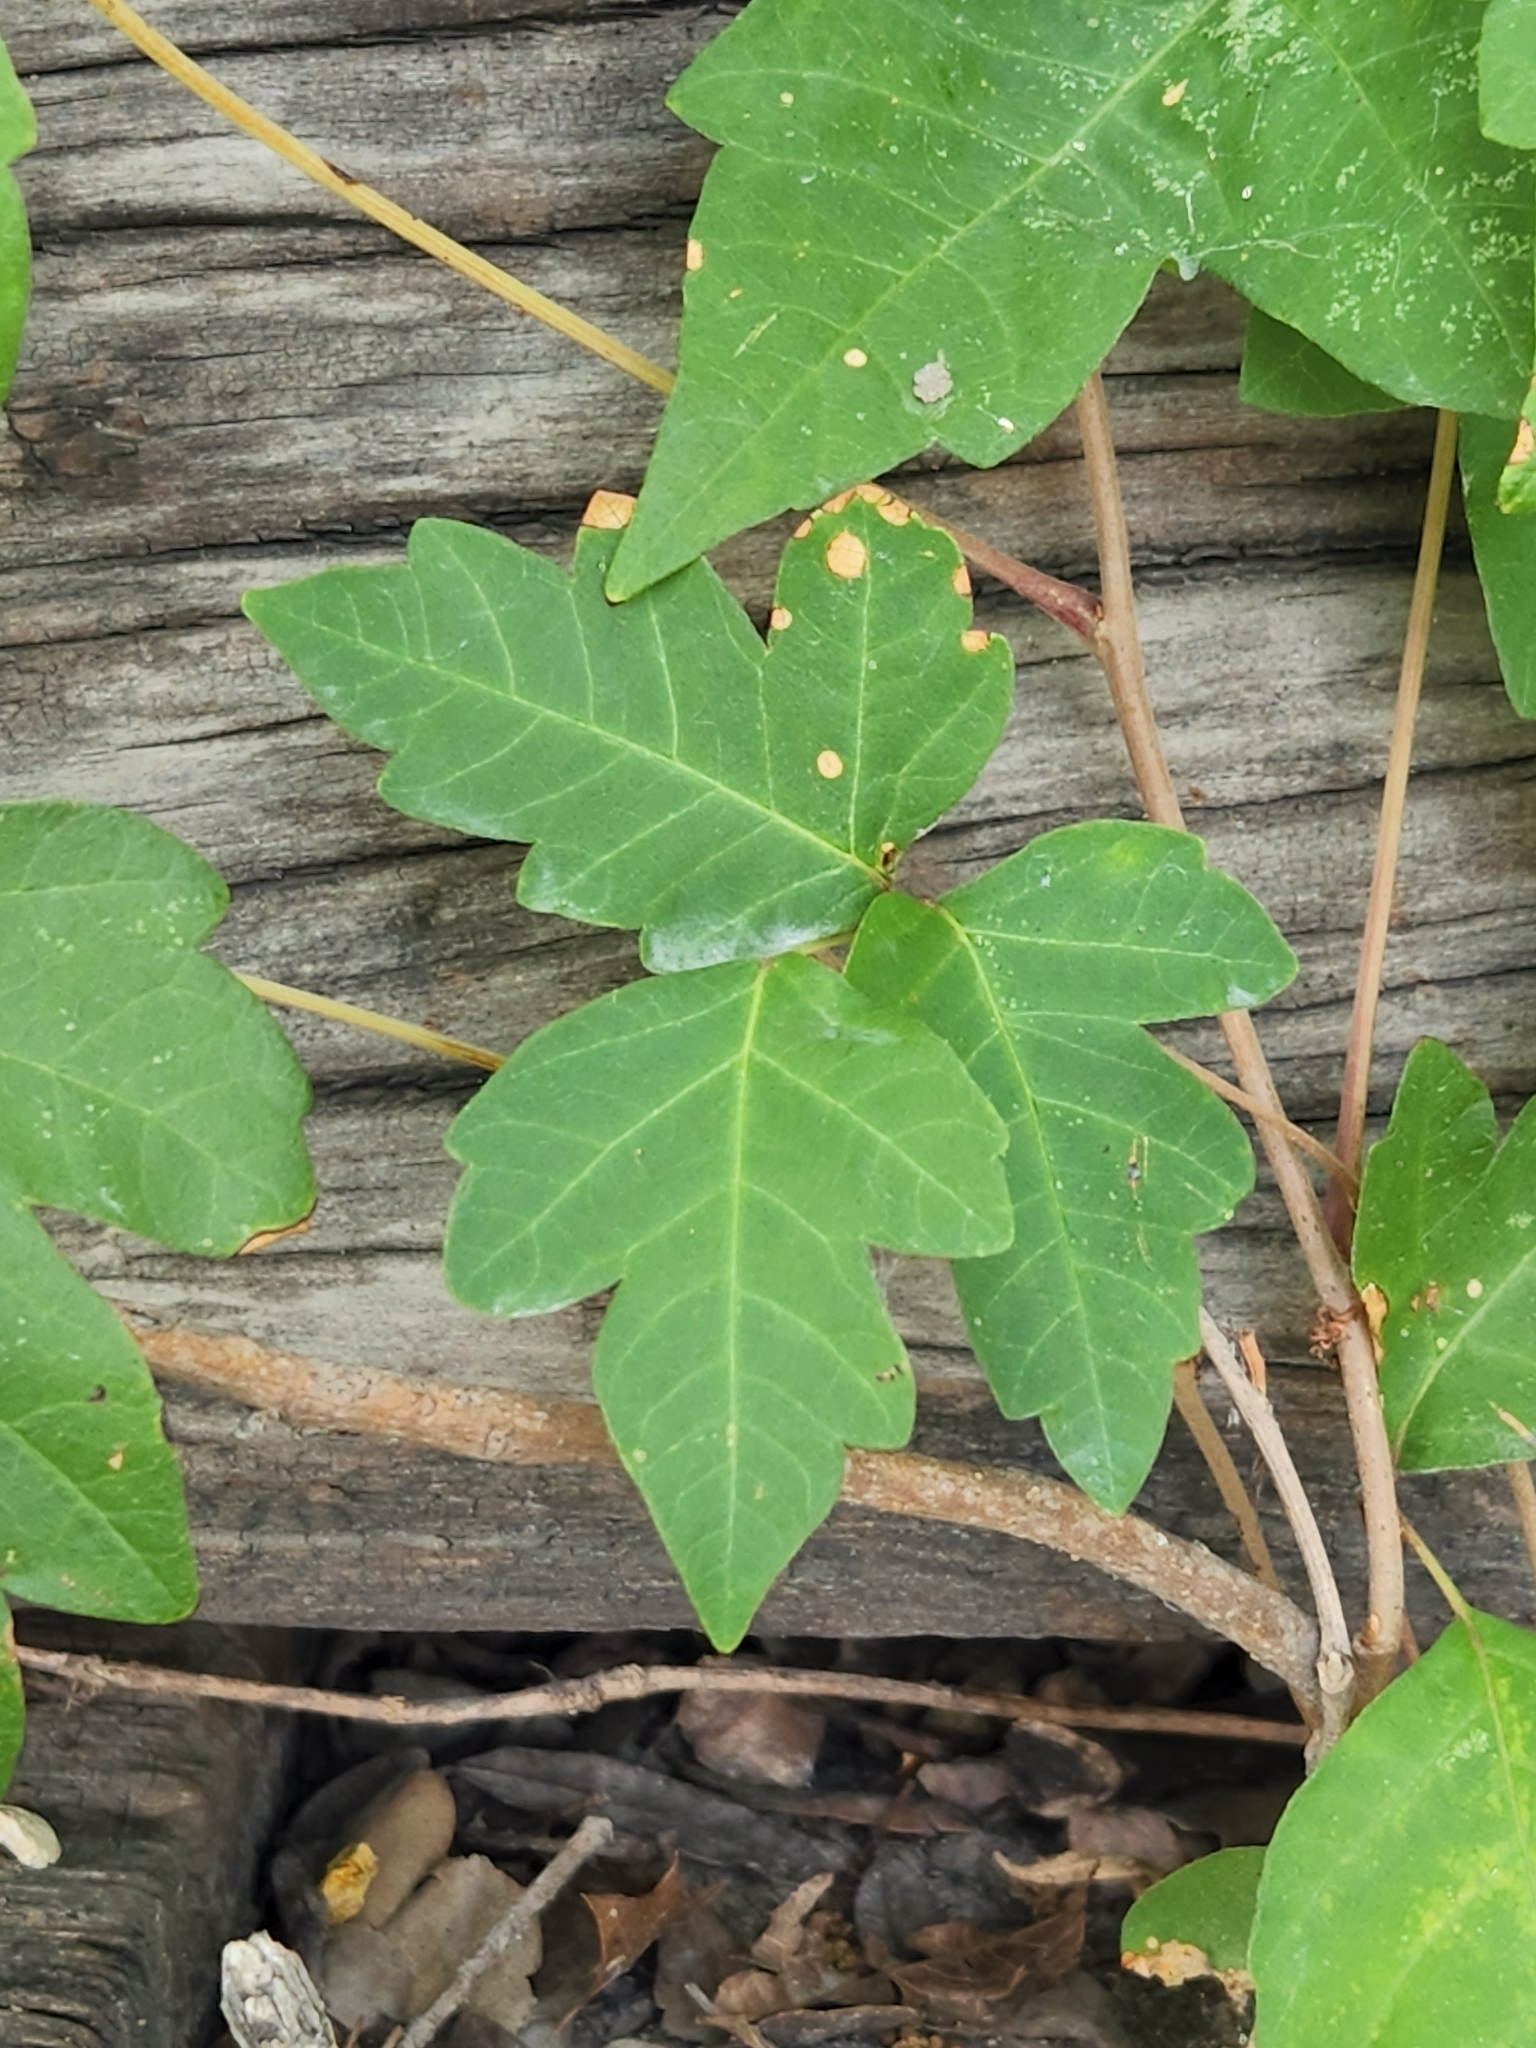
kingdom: Plantae
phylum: Tracheophyta
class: Magnoliopsida
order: Sapindales
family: Anacardiaceae
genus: Toxicodendron
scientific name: Toxicodendron radicans
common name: Poison ivy
